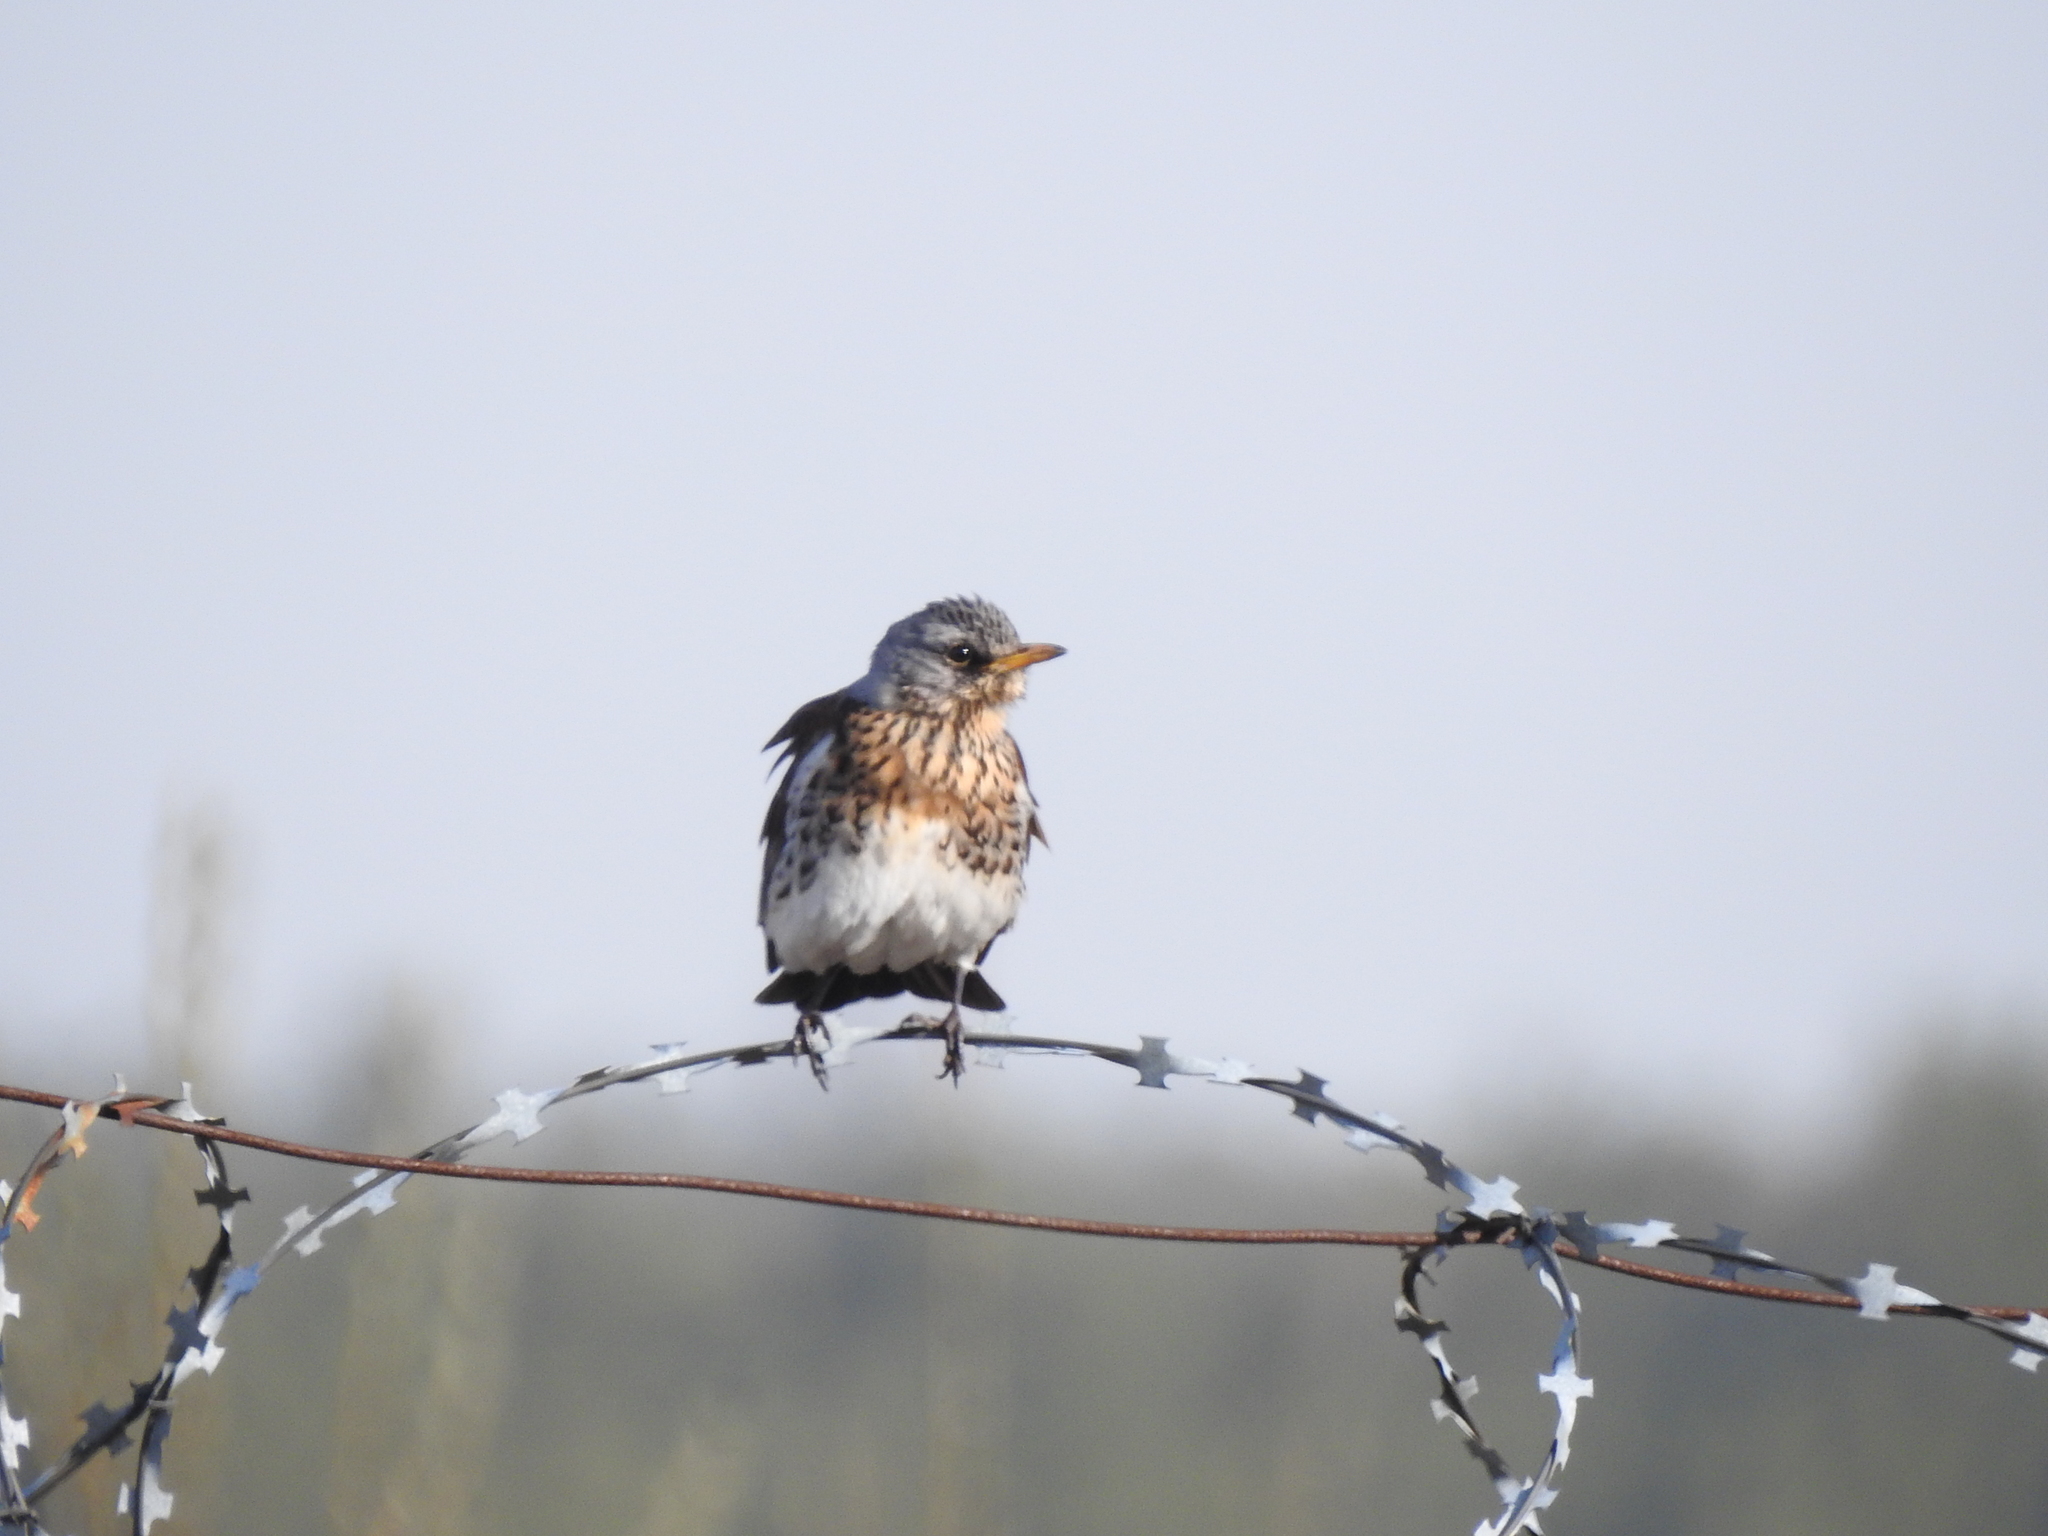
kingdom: Animalia
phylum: Chordata
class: Aves
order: Passeriformes
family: Turdidae
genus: Turdus
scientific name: Turdus pilaris
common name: Fieldfare
